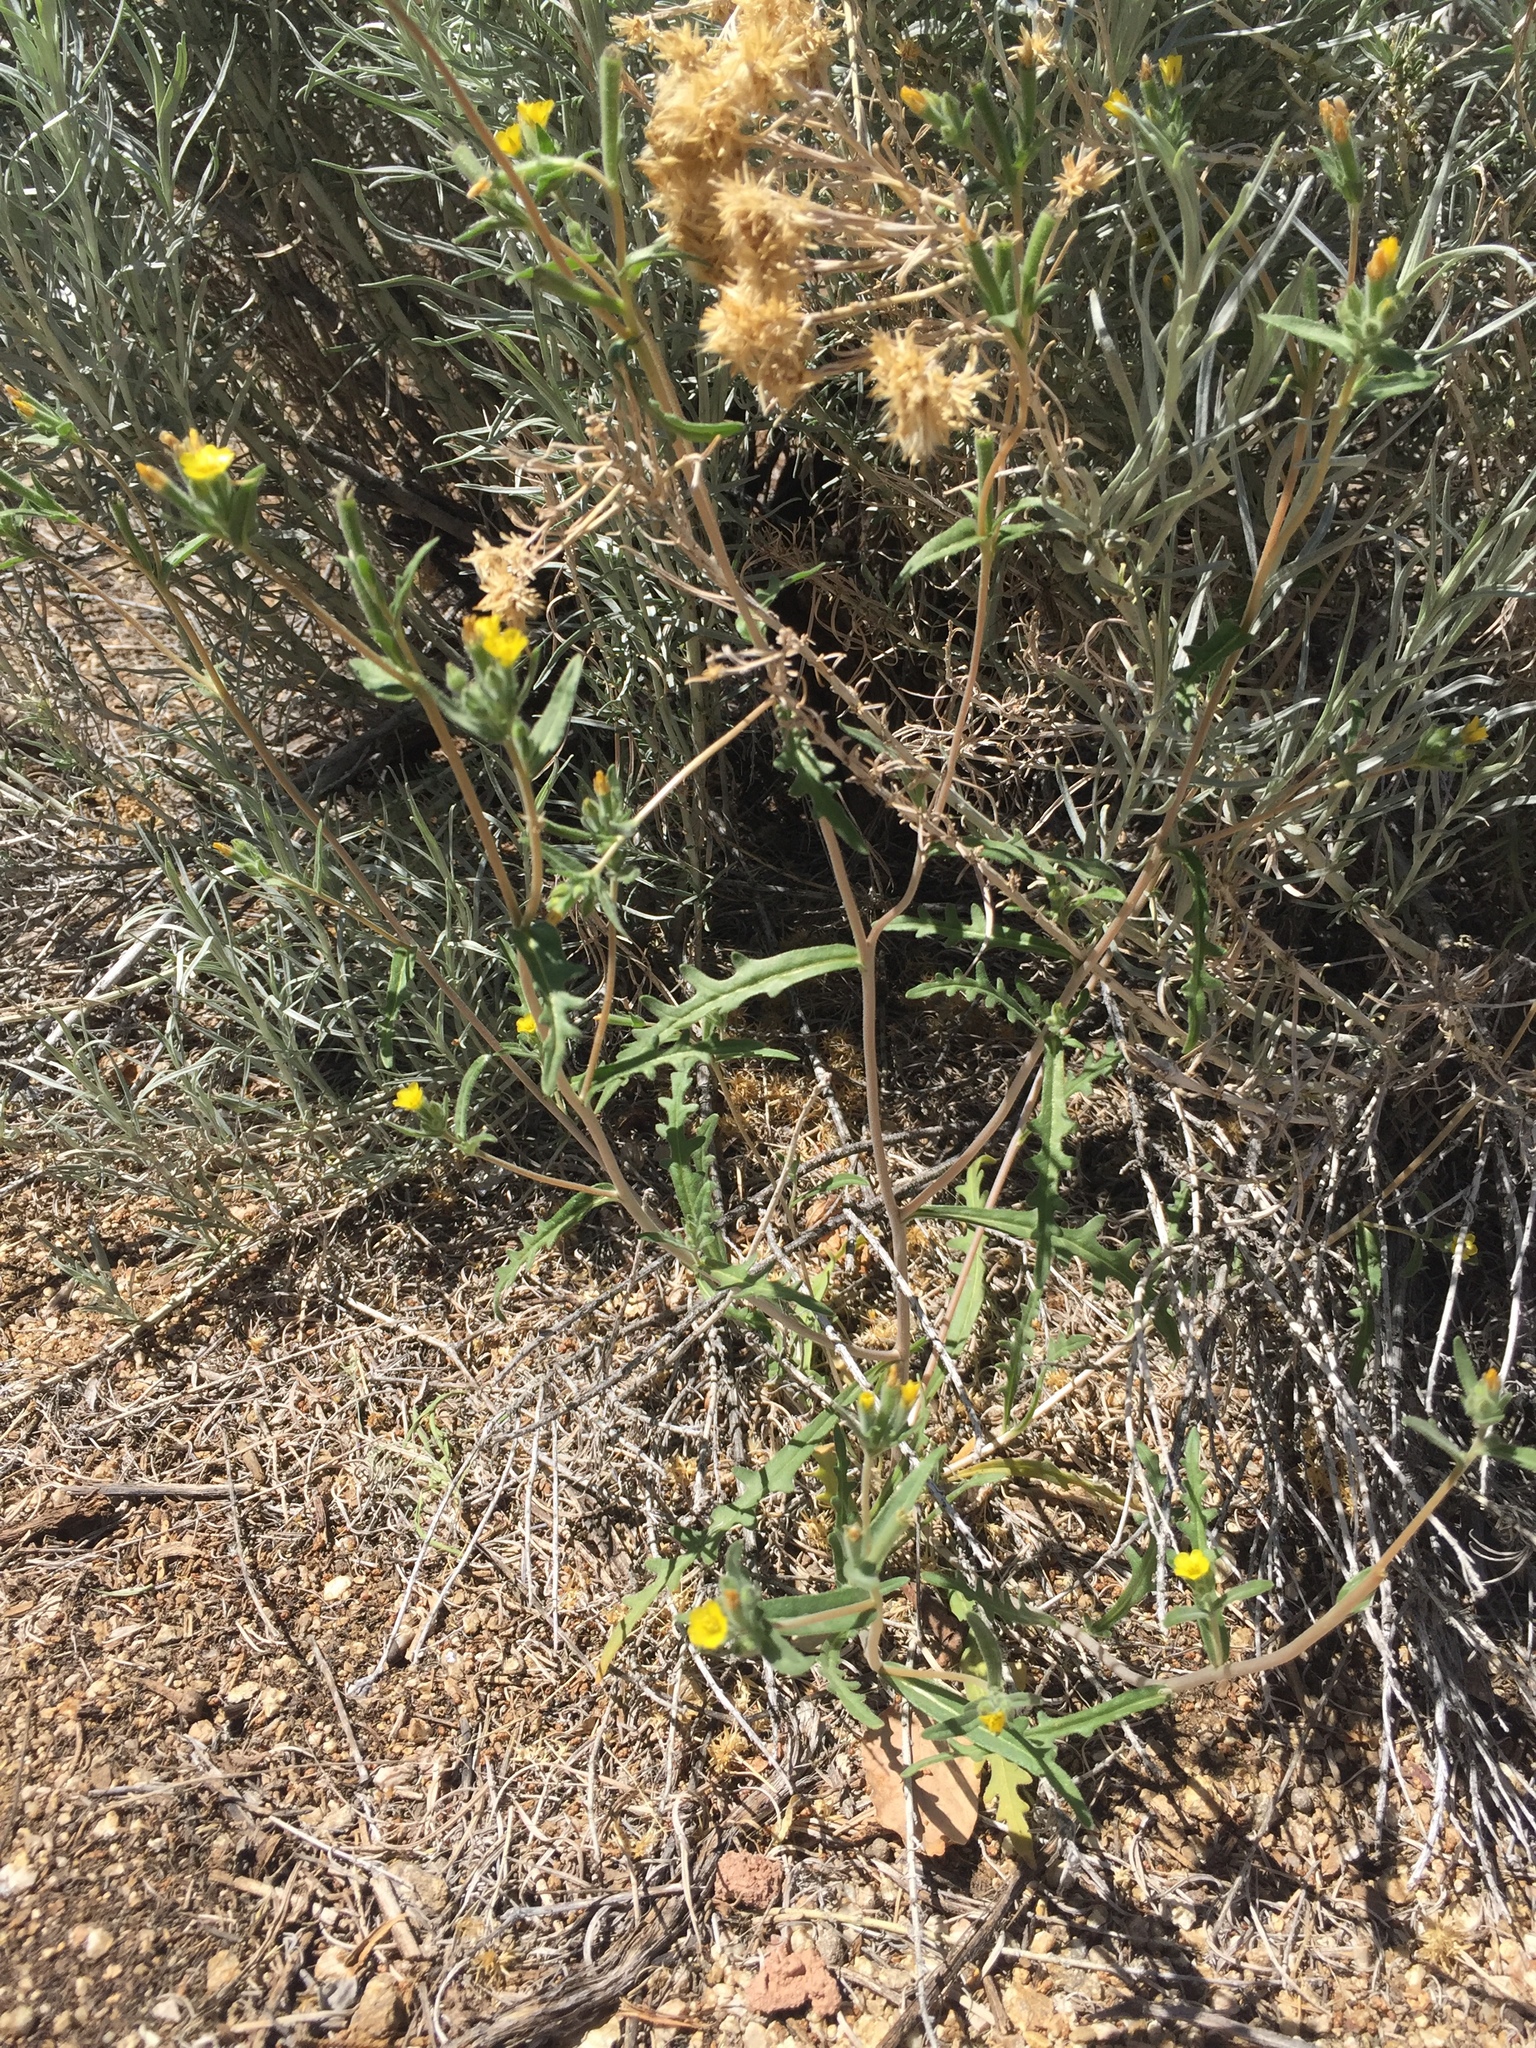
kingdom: Plantae
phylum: Tracheophyta
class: Magnoliopsida
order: Cornales
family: Loasaceae
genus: Mentzelia
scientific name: Mentzelia albicaulis
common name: White-stem blazingstar
